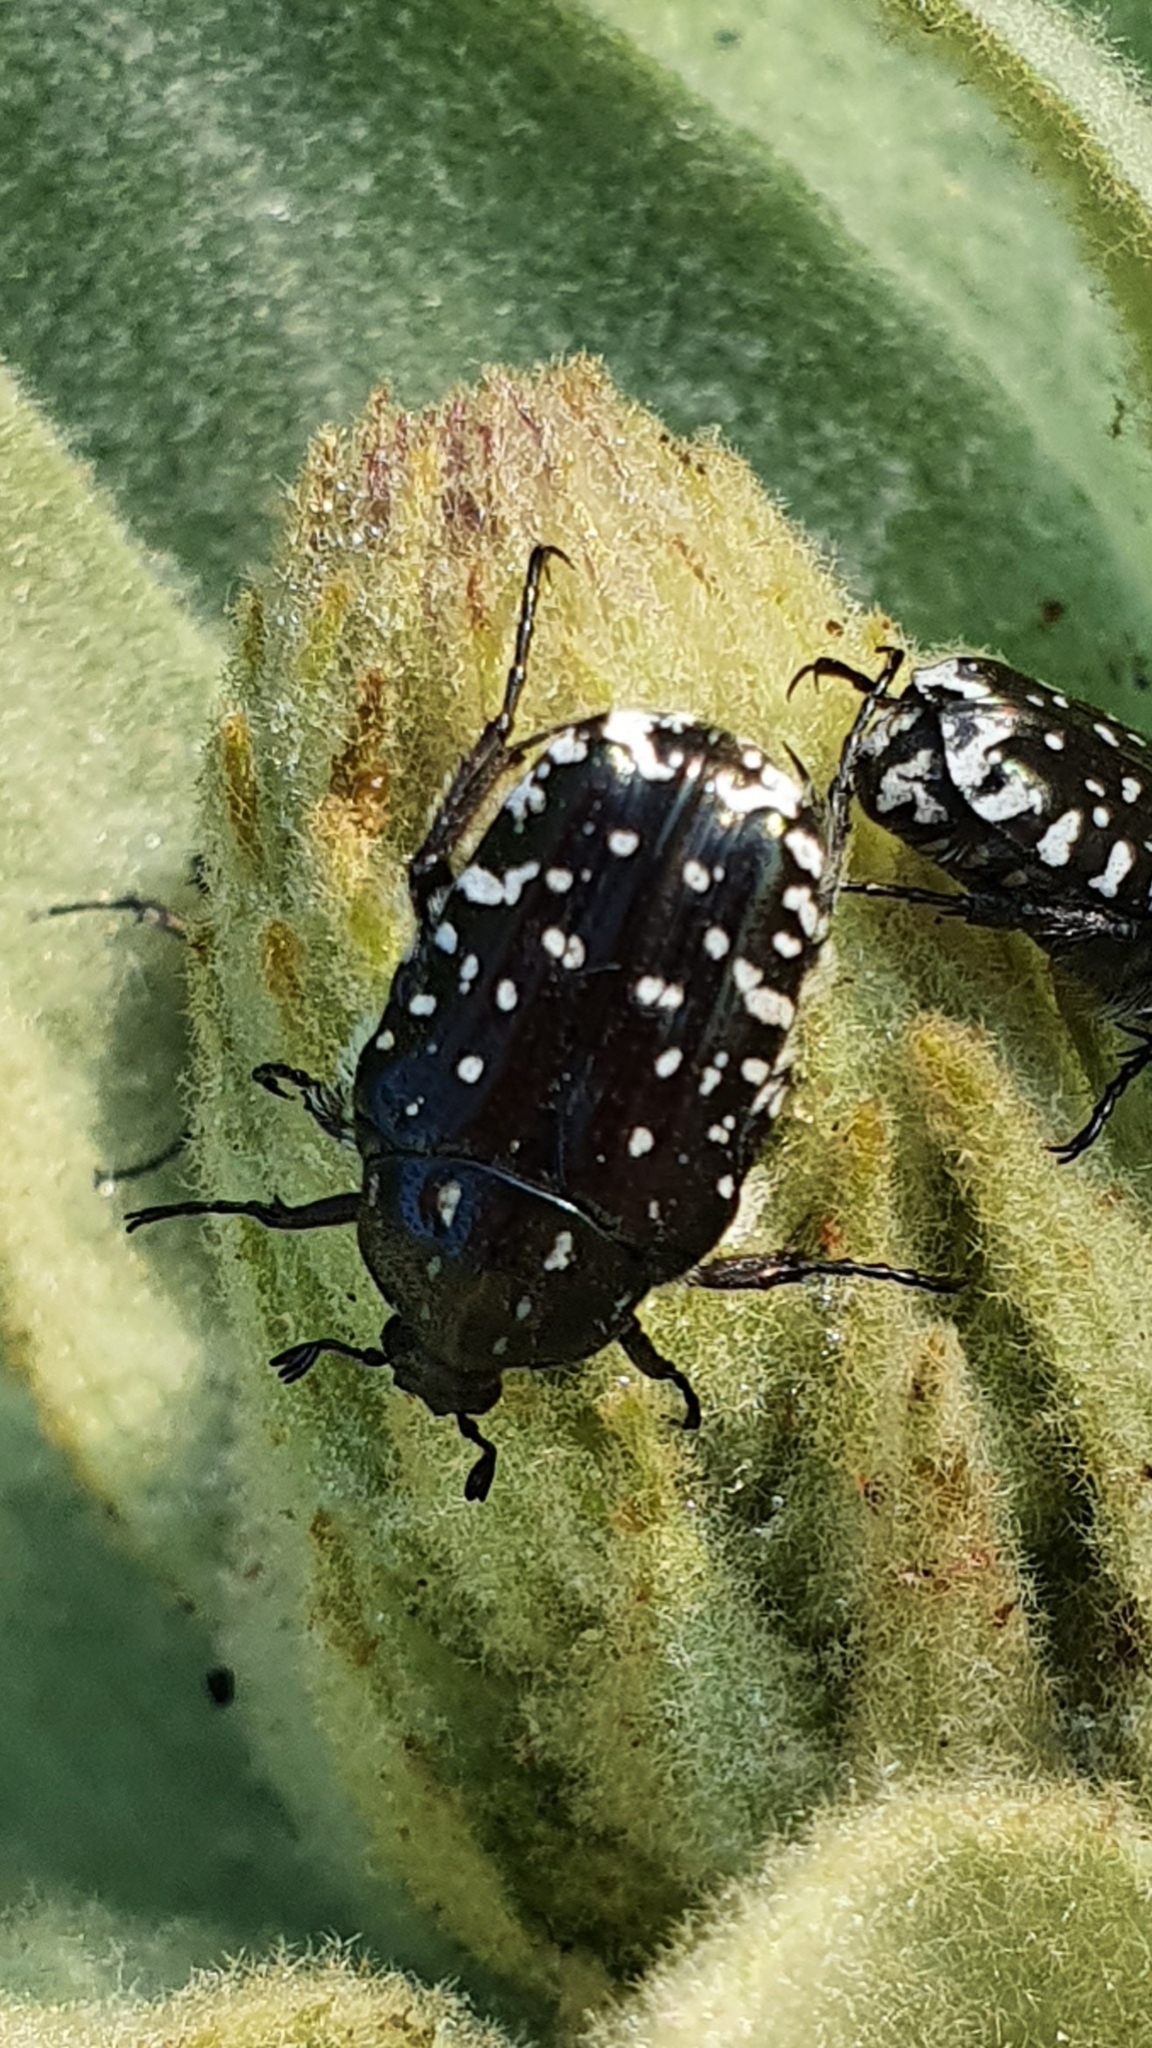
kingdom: Animalia
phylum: Arthropoda
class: Insecta
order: Coleoptera
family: Scarabaeidae
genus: Oxythyrea
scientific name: Oxythyrea funesta
